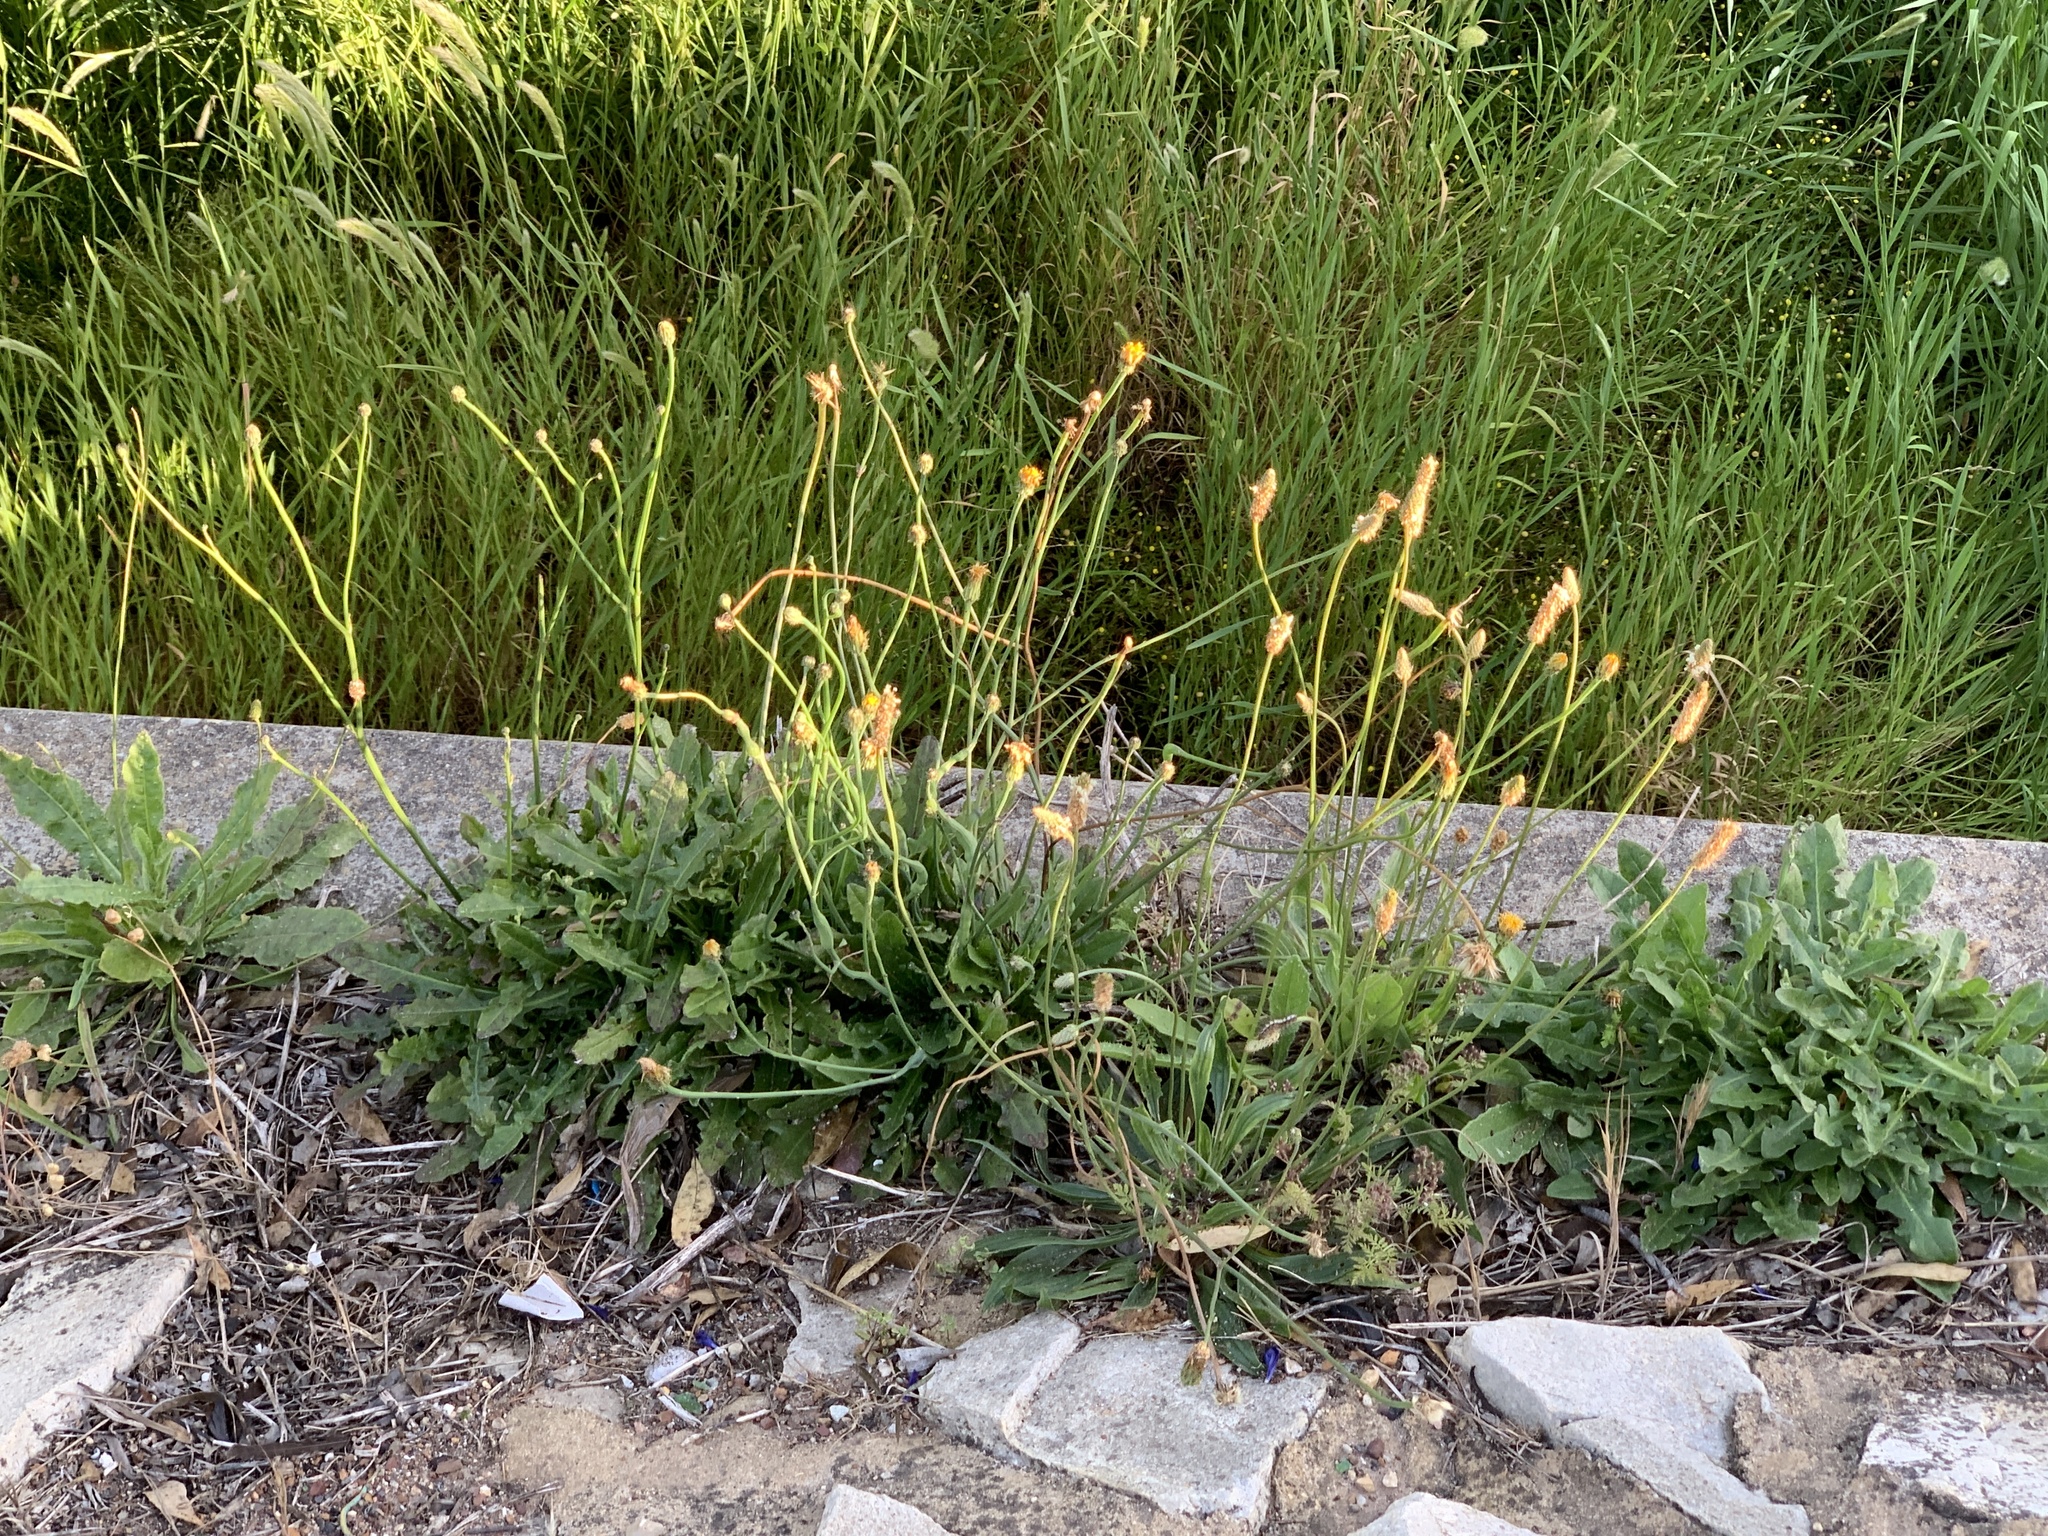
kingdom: Plantae
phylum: Tracheophyta
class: Magnoliopsida
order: Lamiales
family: Plantaginaceae
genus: Plantago
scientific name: Plantago lanceolata
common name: Ribwort plantain
